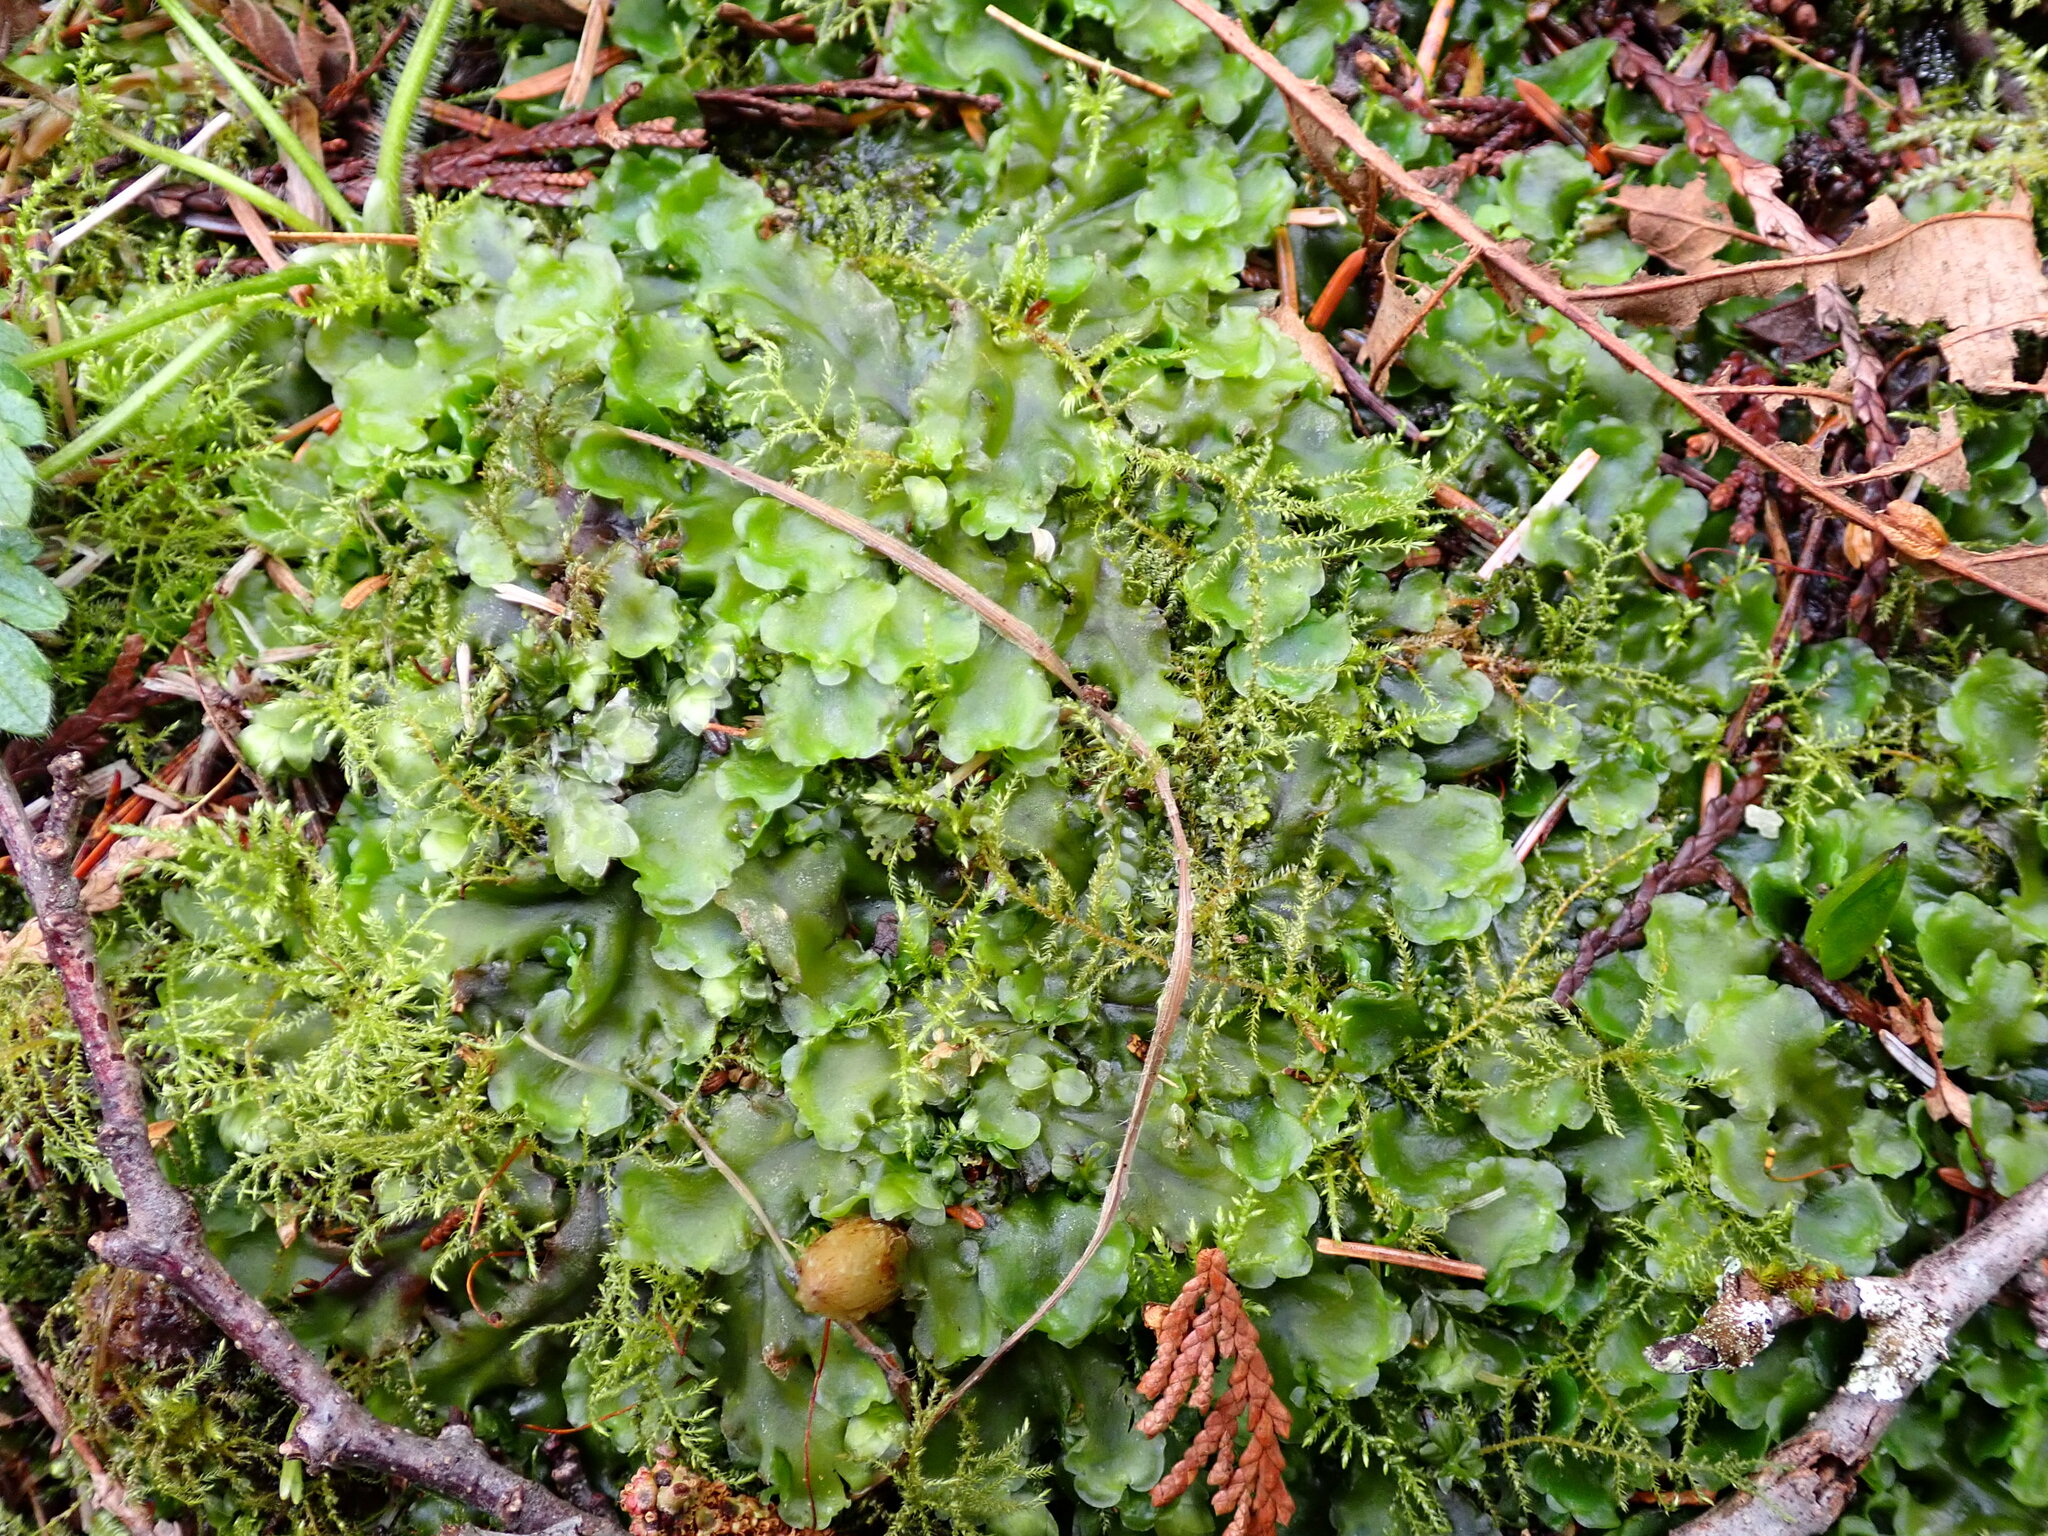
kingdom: Plantae
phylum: Marchantiophyta
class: Jungermanniopsida
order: Pelliales
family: Pelliaceae
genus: Pellia
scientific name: Pellia neesiana
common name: Nees  pellia
